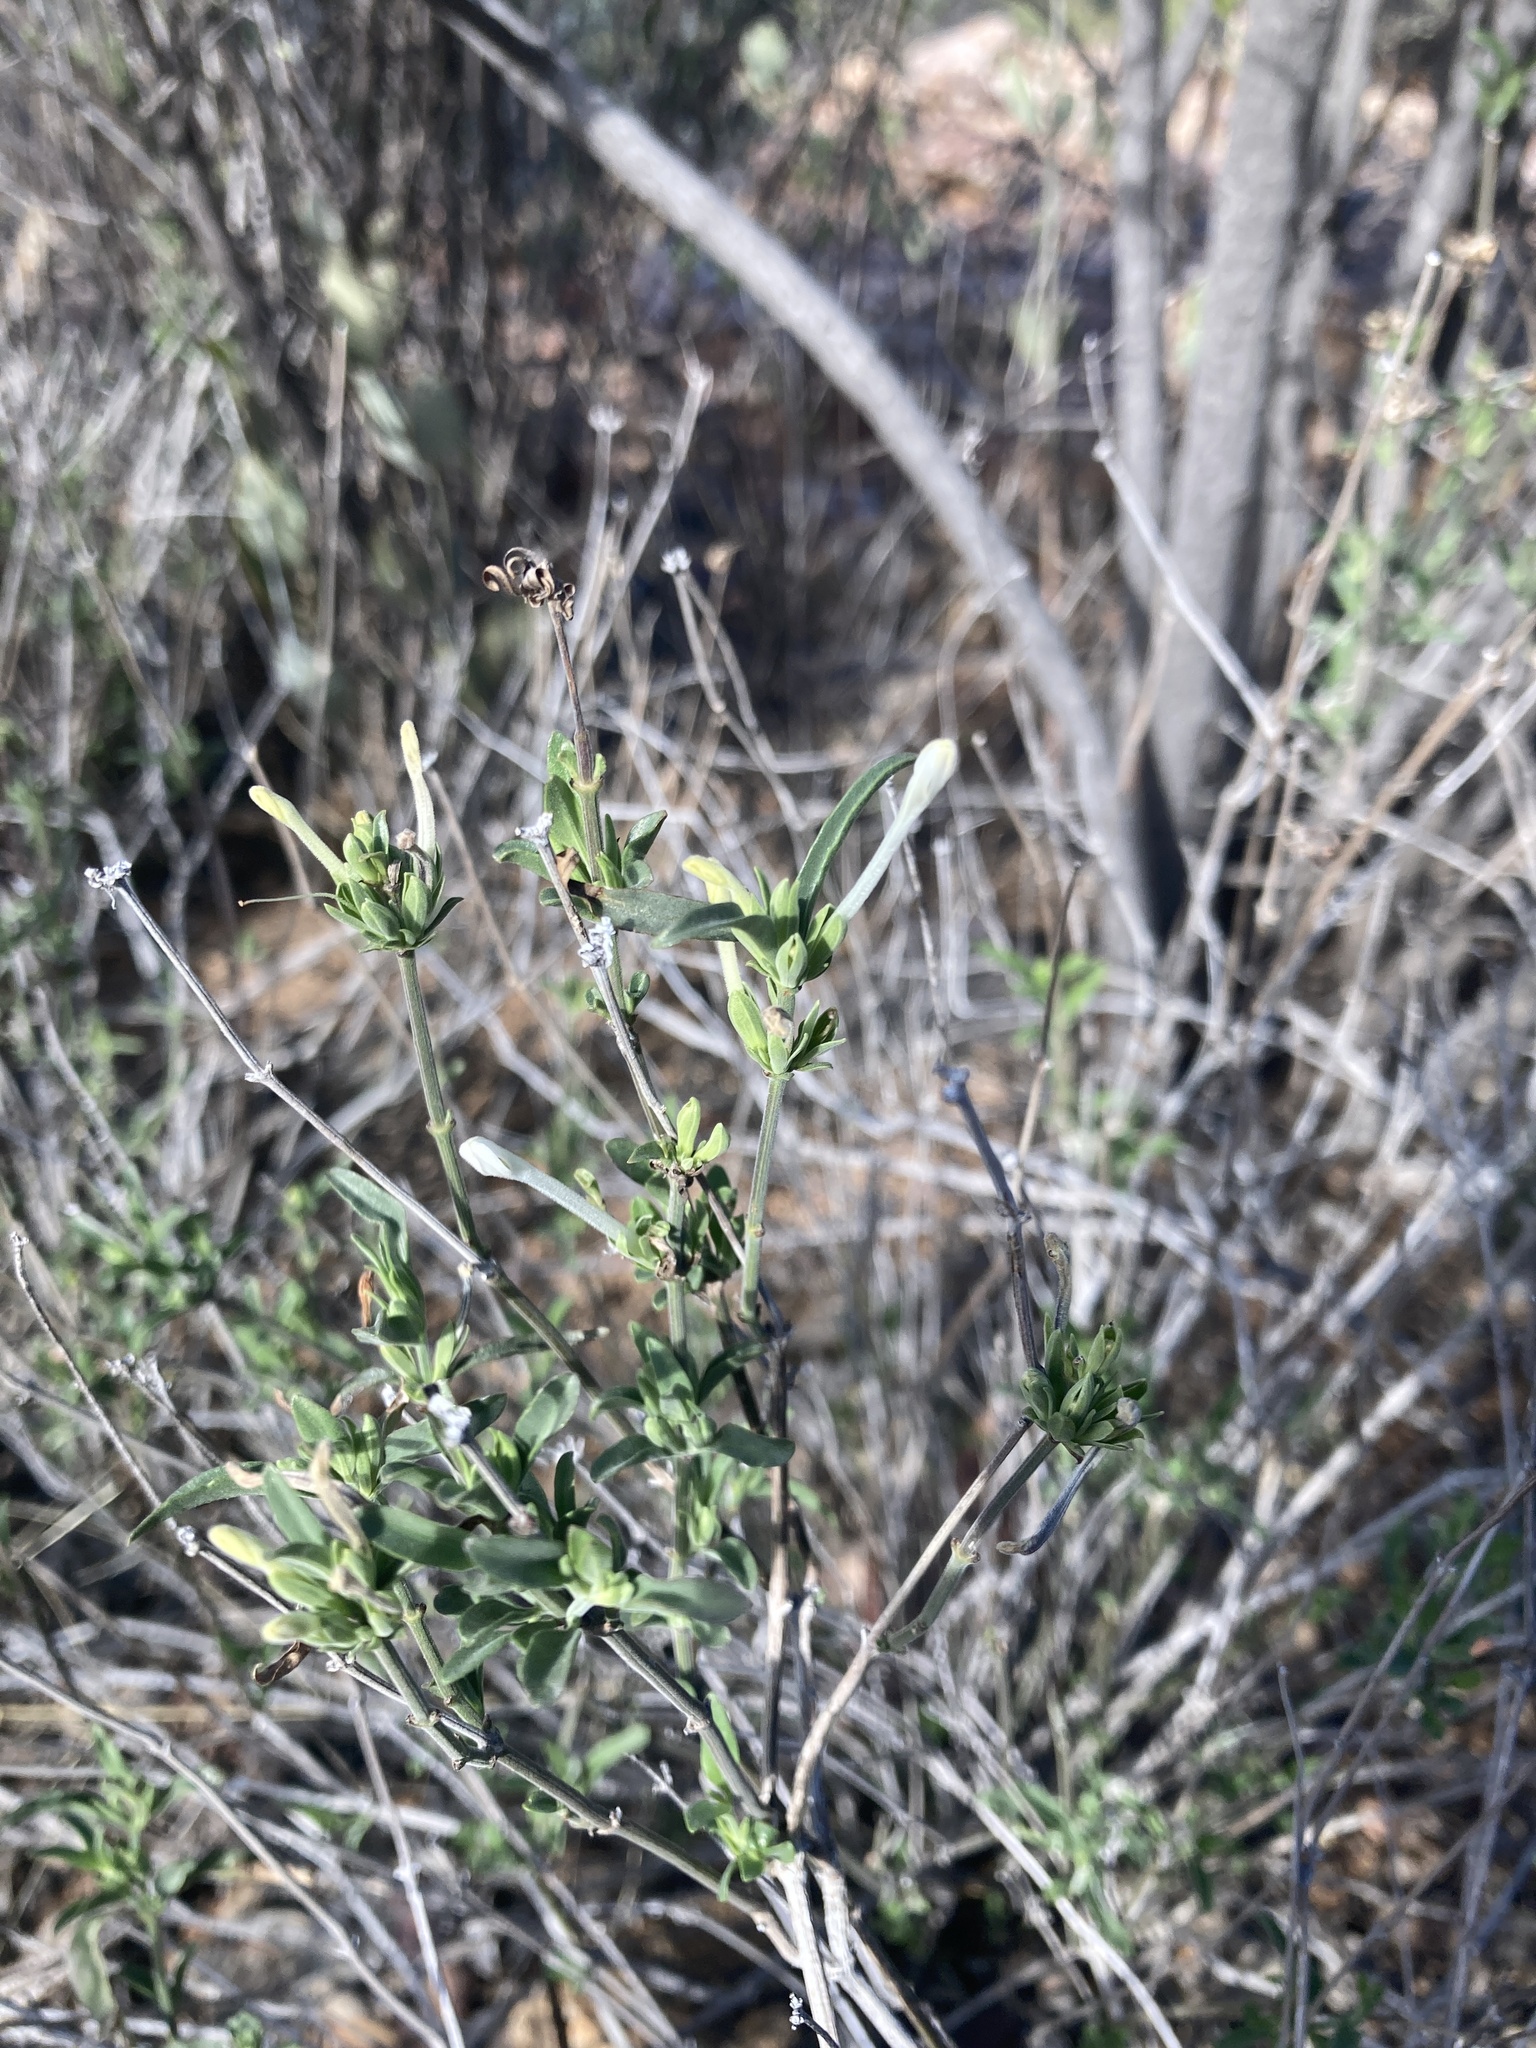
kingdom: Plantae
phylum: Tracheophyta
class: Magnoliopsida
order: Lamiales
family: Acanthaceae
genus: Justicia
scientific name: Justicia longii
